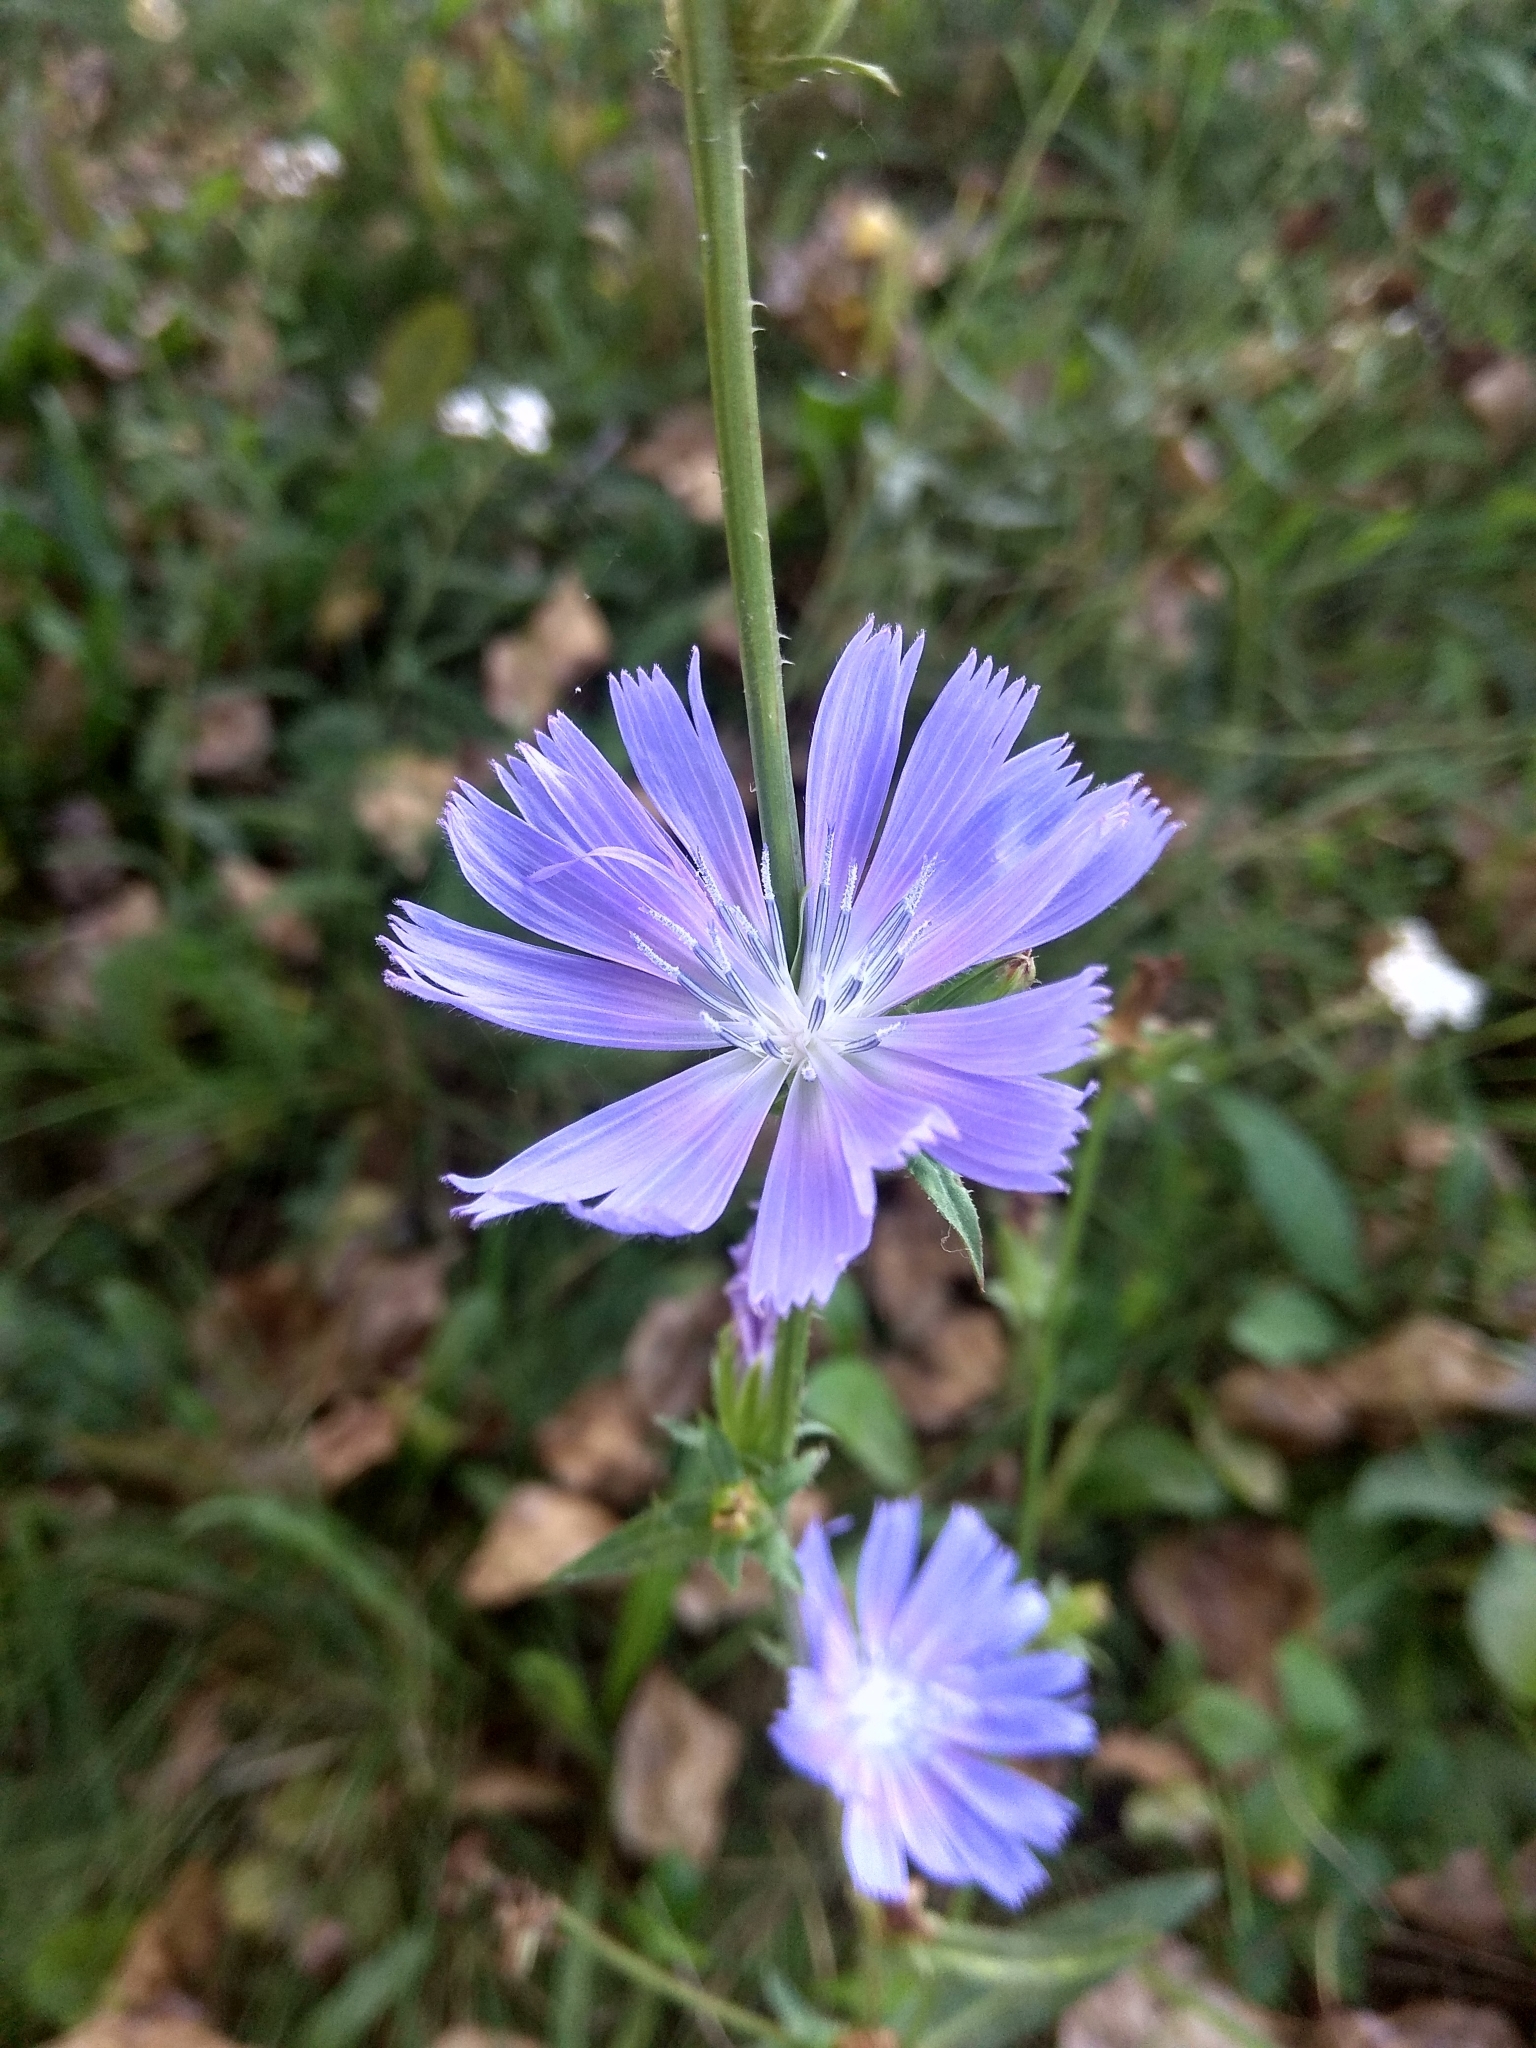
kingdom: Plantae
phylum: Tracheophyta
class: Magnoliopsida
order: Asterales
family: Asteraceae
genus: Cichorium
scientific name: Cichorium intybus
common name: Chicory
